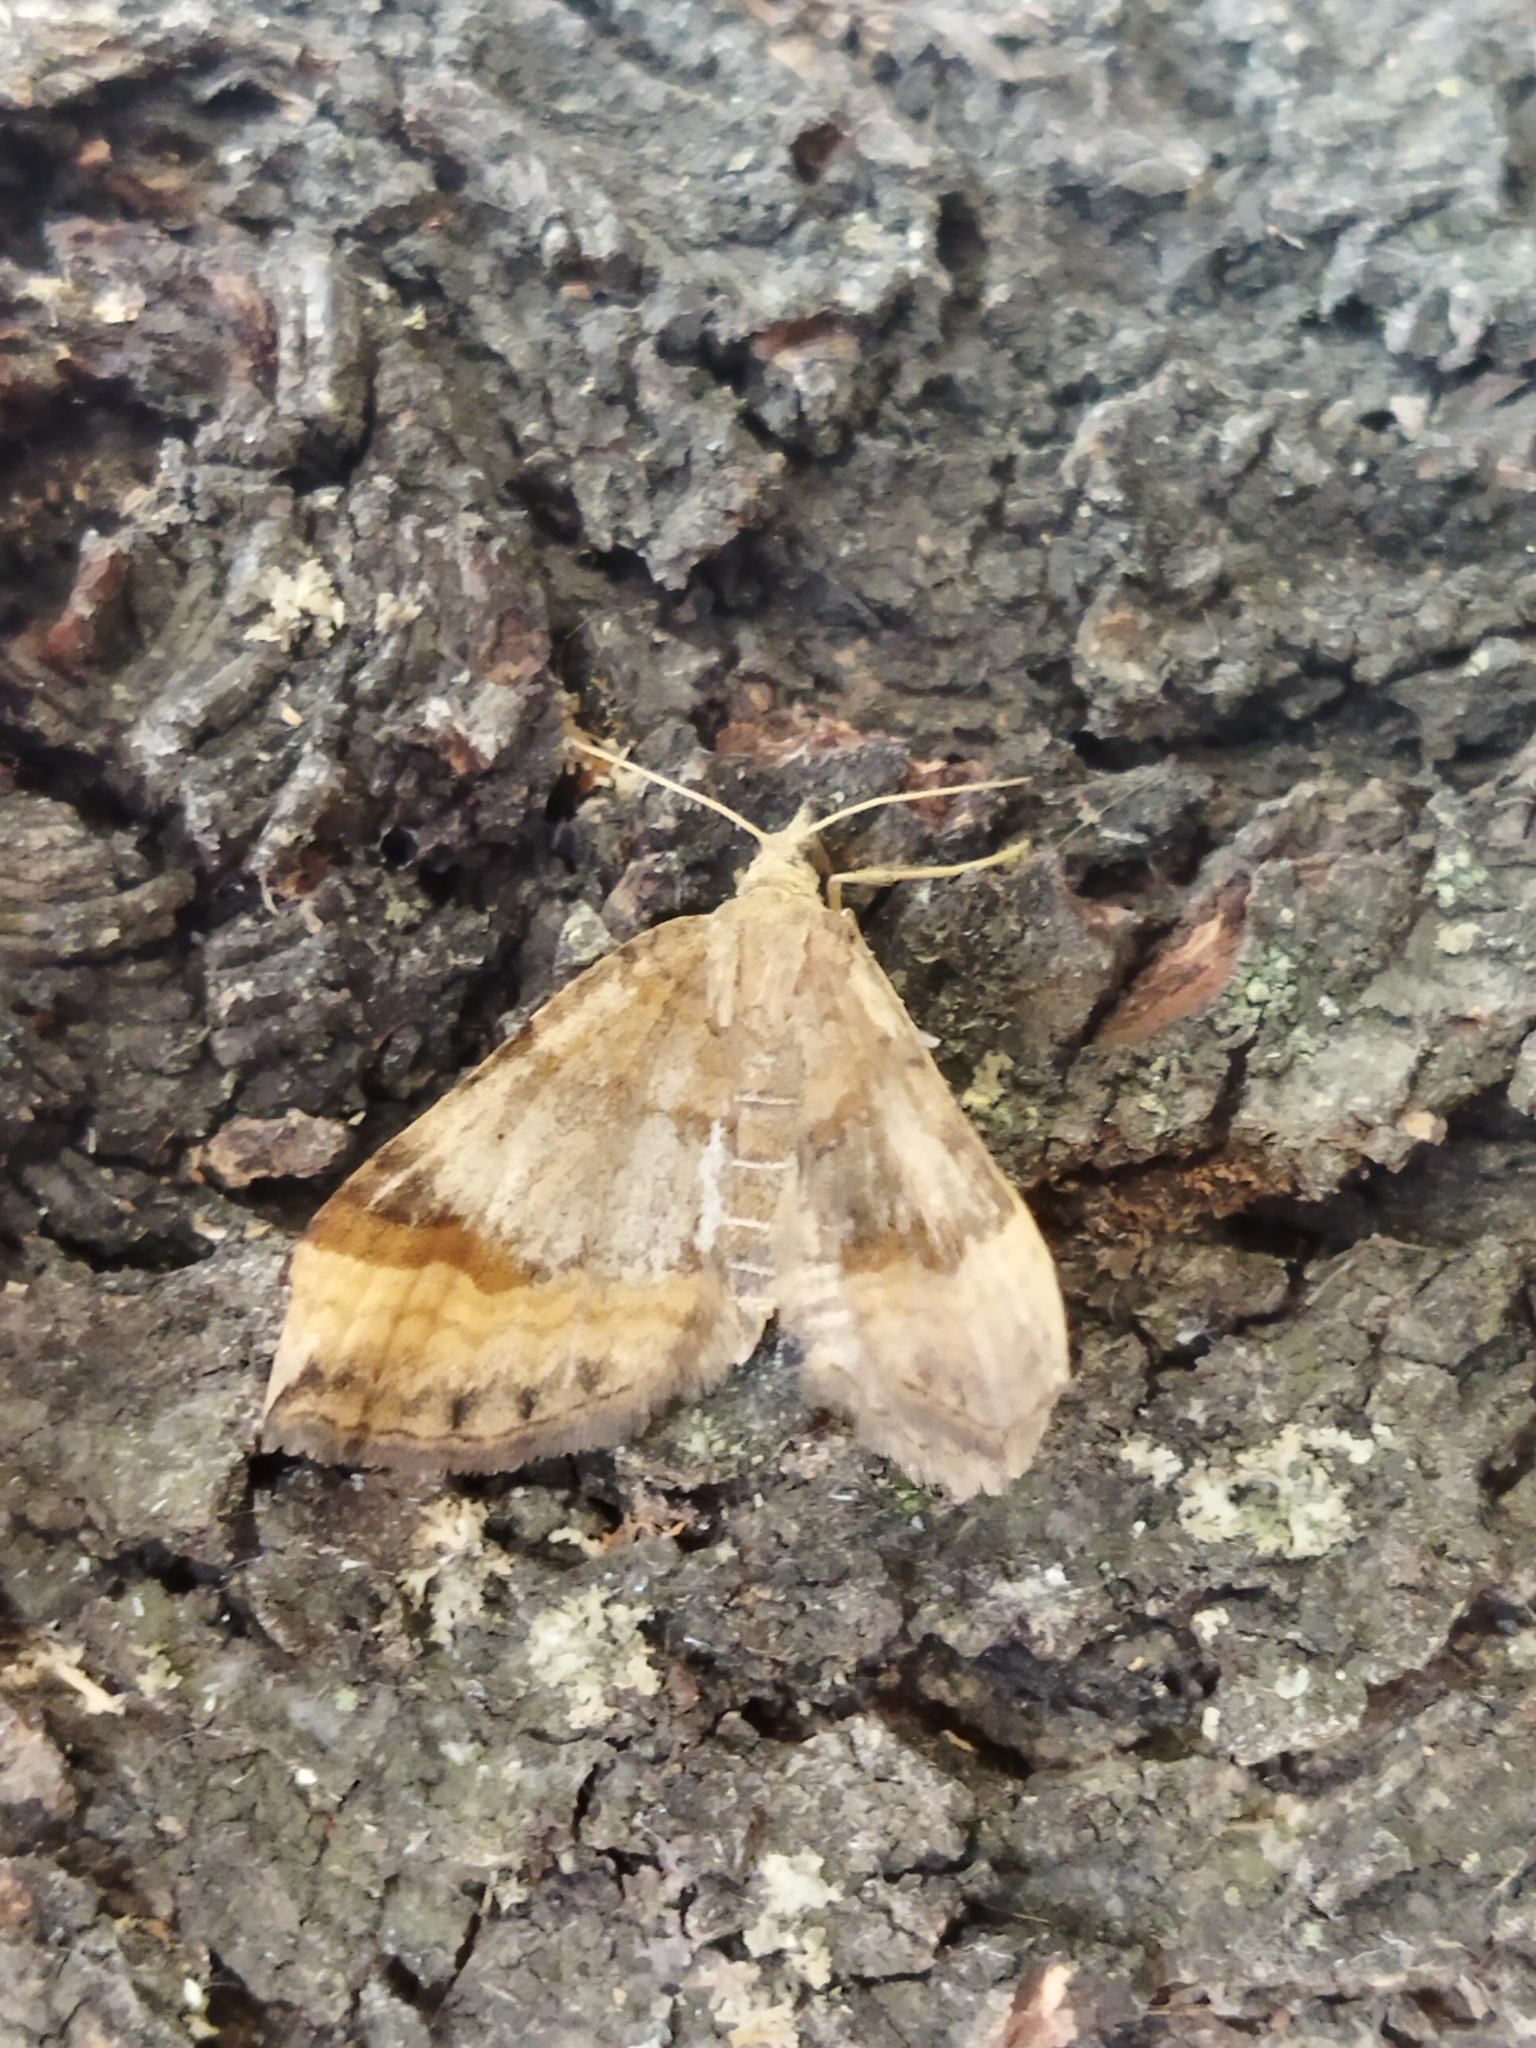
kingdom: Animalia
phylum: Arthropoda
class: Insecta
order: Lepidoptera
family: Geometridae
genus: Scotopteryx
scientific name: Scotopteryx chenopodiata
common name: Shaded broad-bar
